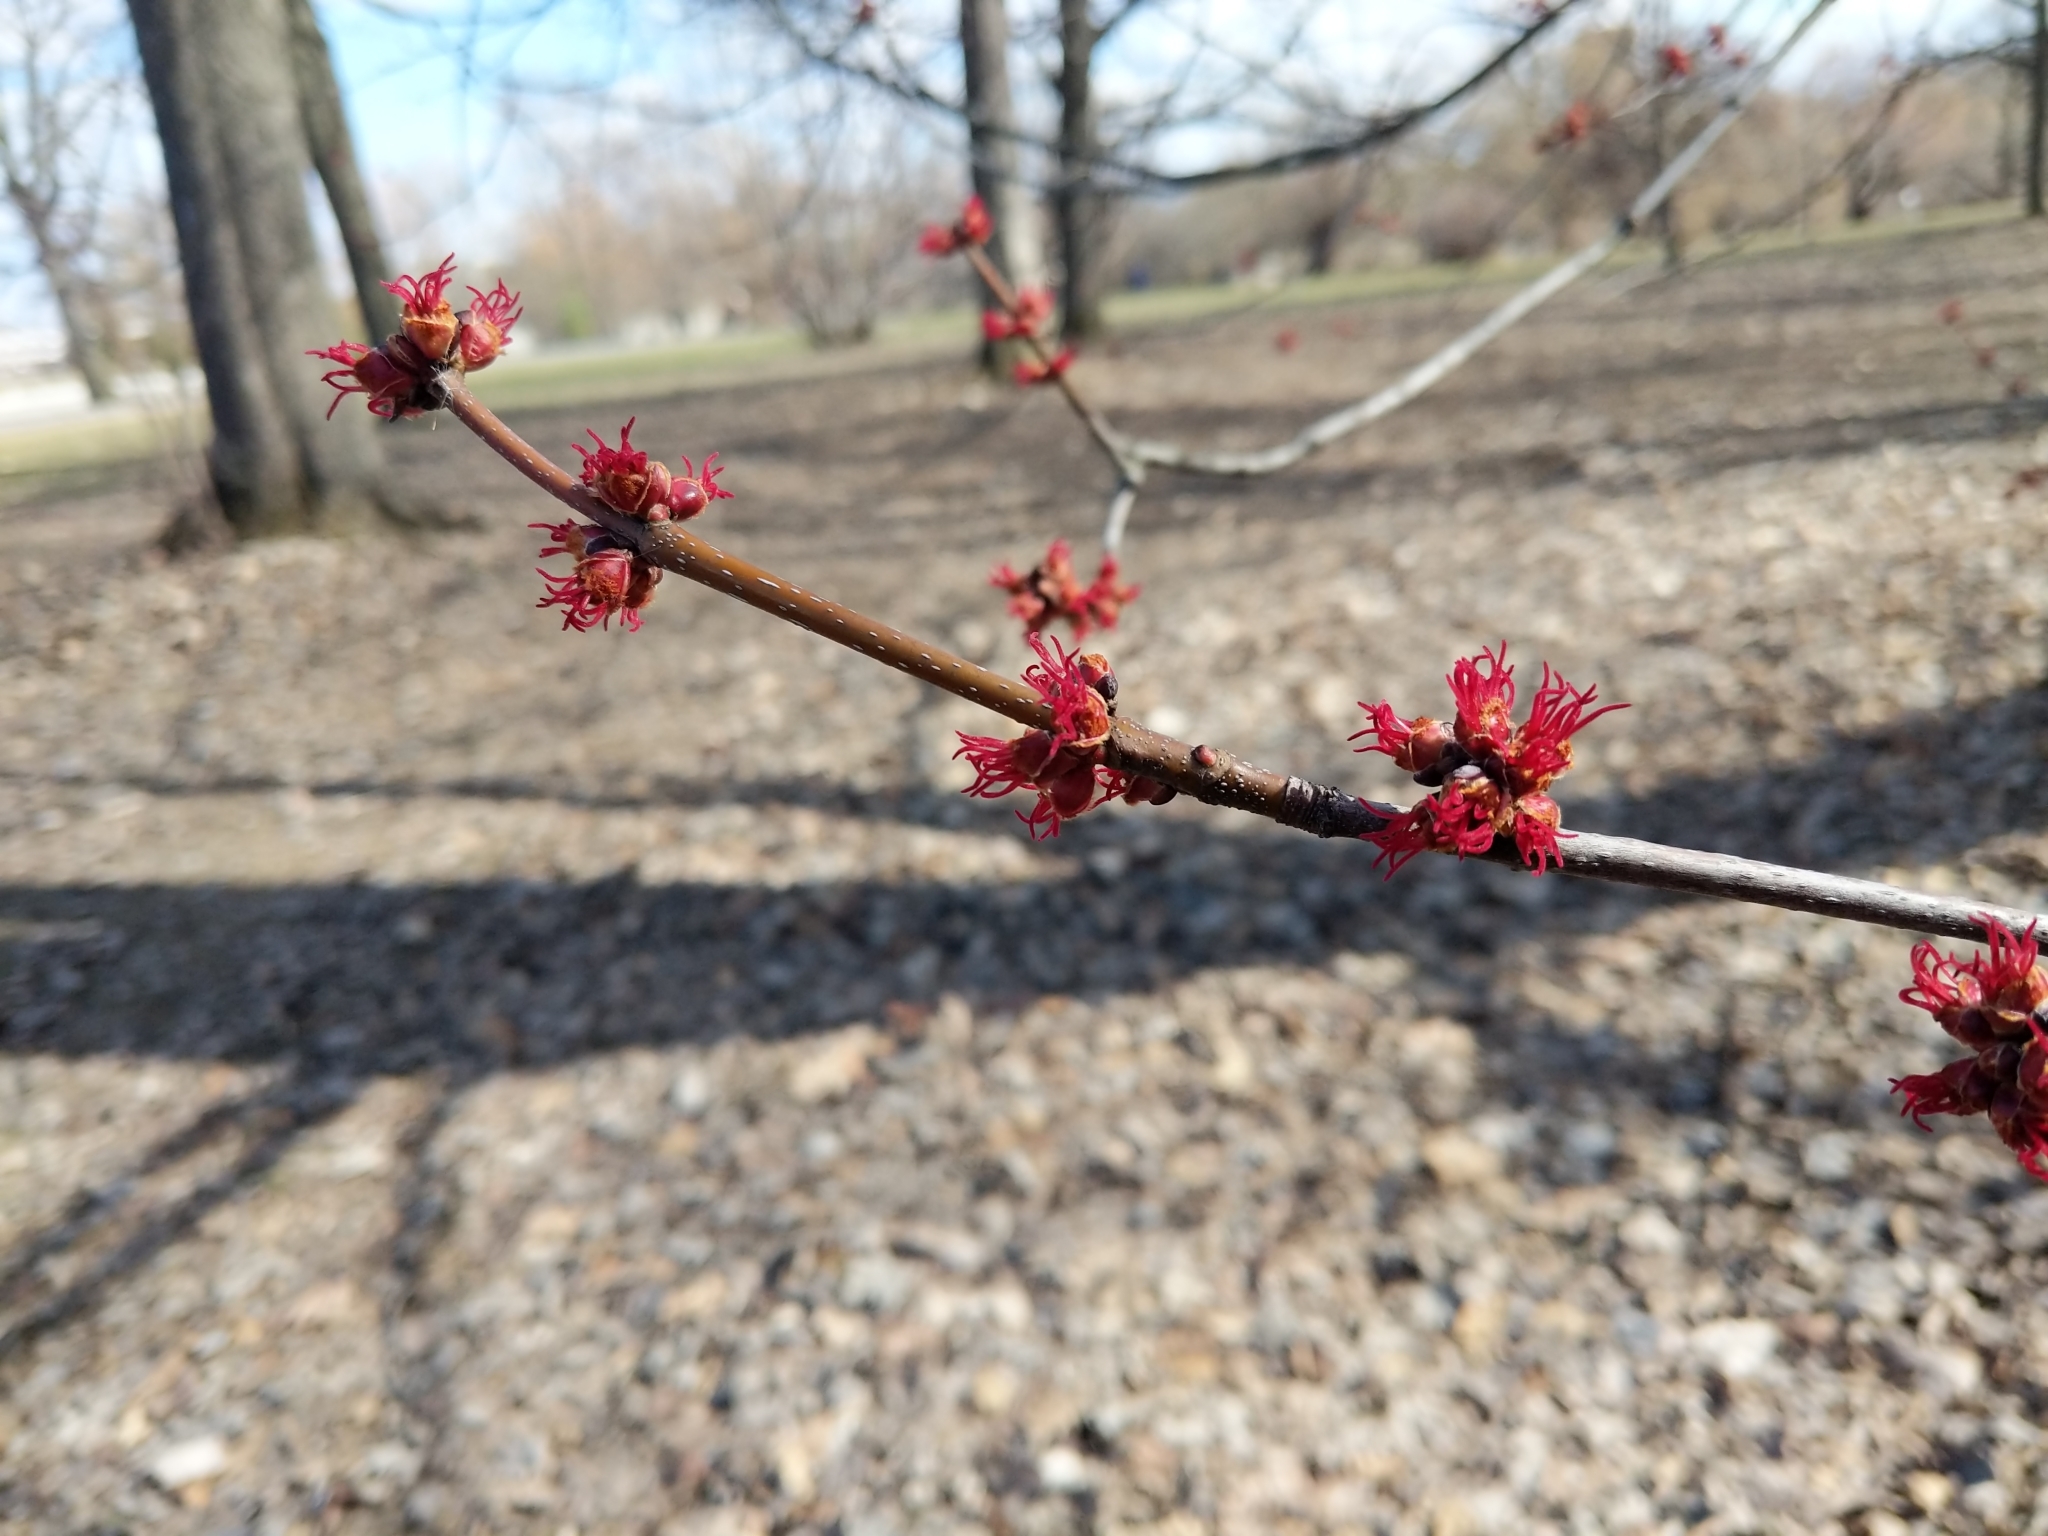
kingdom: Plantae
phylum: Tracheophyta
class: Magnoliopsida
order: Sapindales
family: Sapindaceae
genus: Acer
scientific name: Acer rubrum
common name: Red maple
